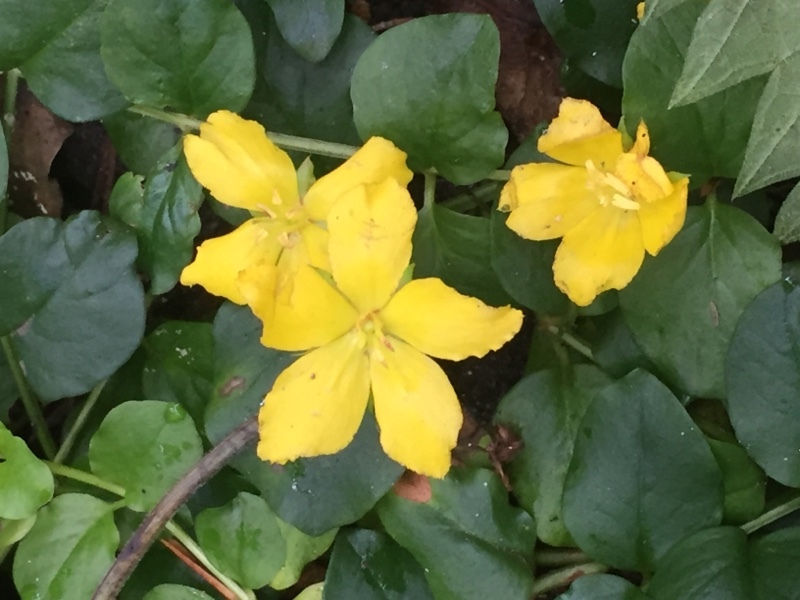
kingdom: Plantae
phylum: Tracheophyta
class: Magnoliopsida
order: Ericales
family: Primulaceae
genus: Lysimachia
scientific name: Lysimachia nummularia
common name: Moneywort
